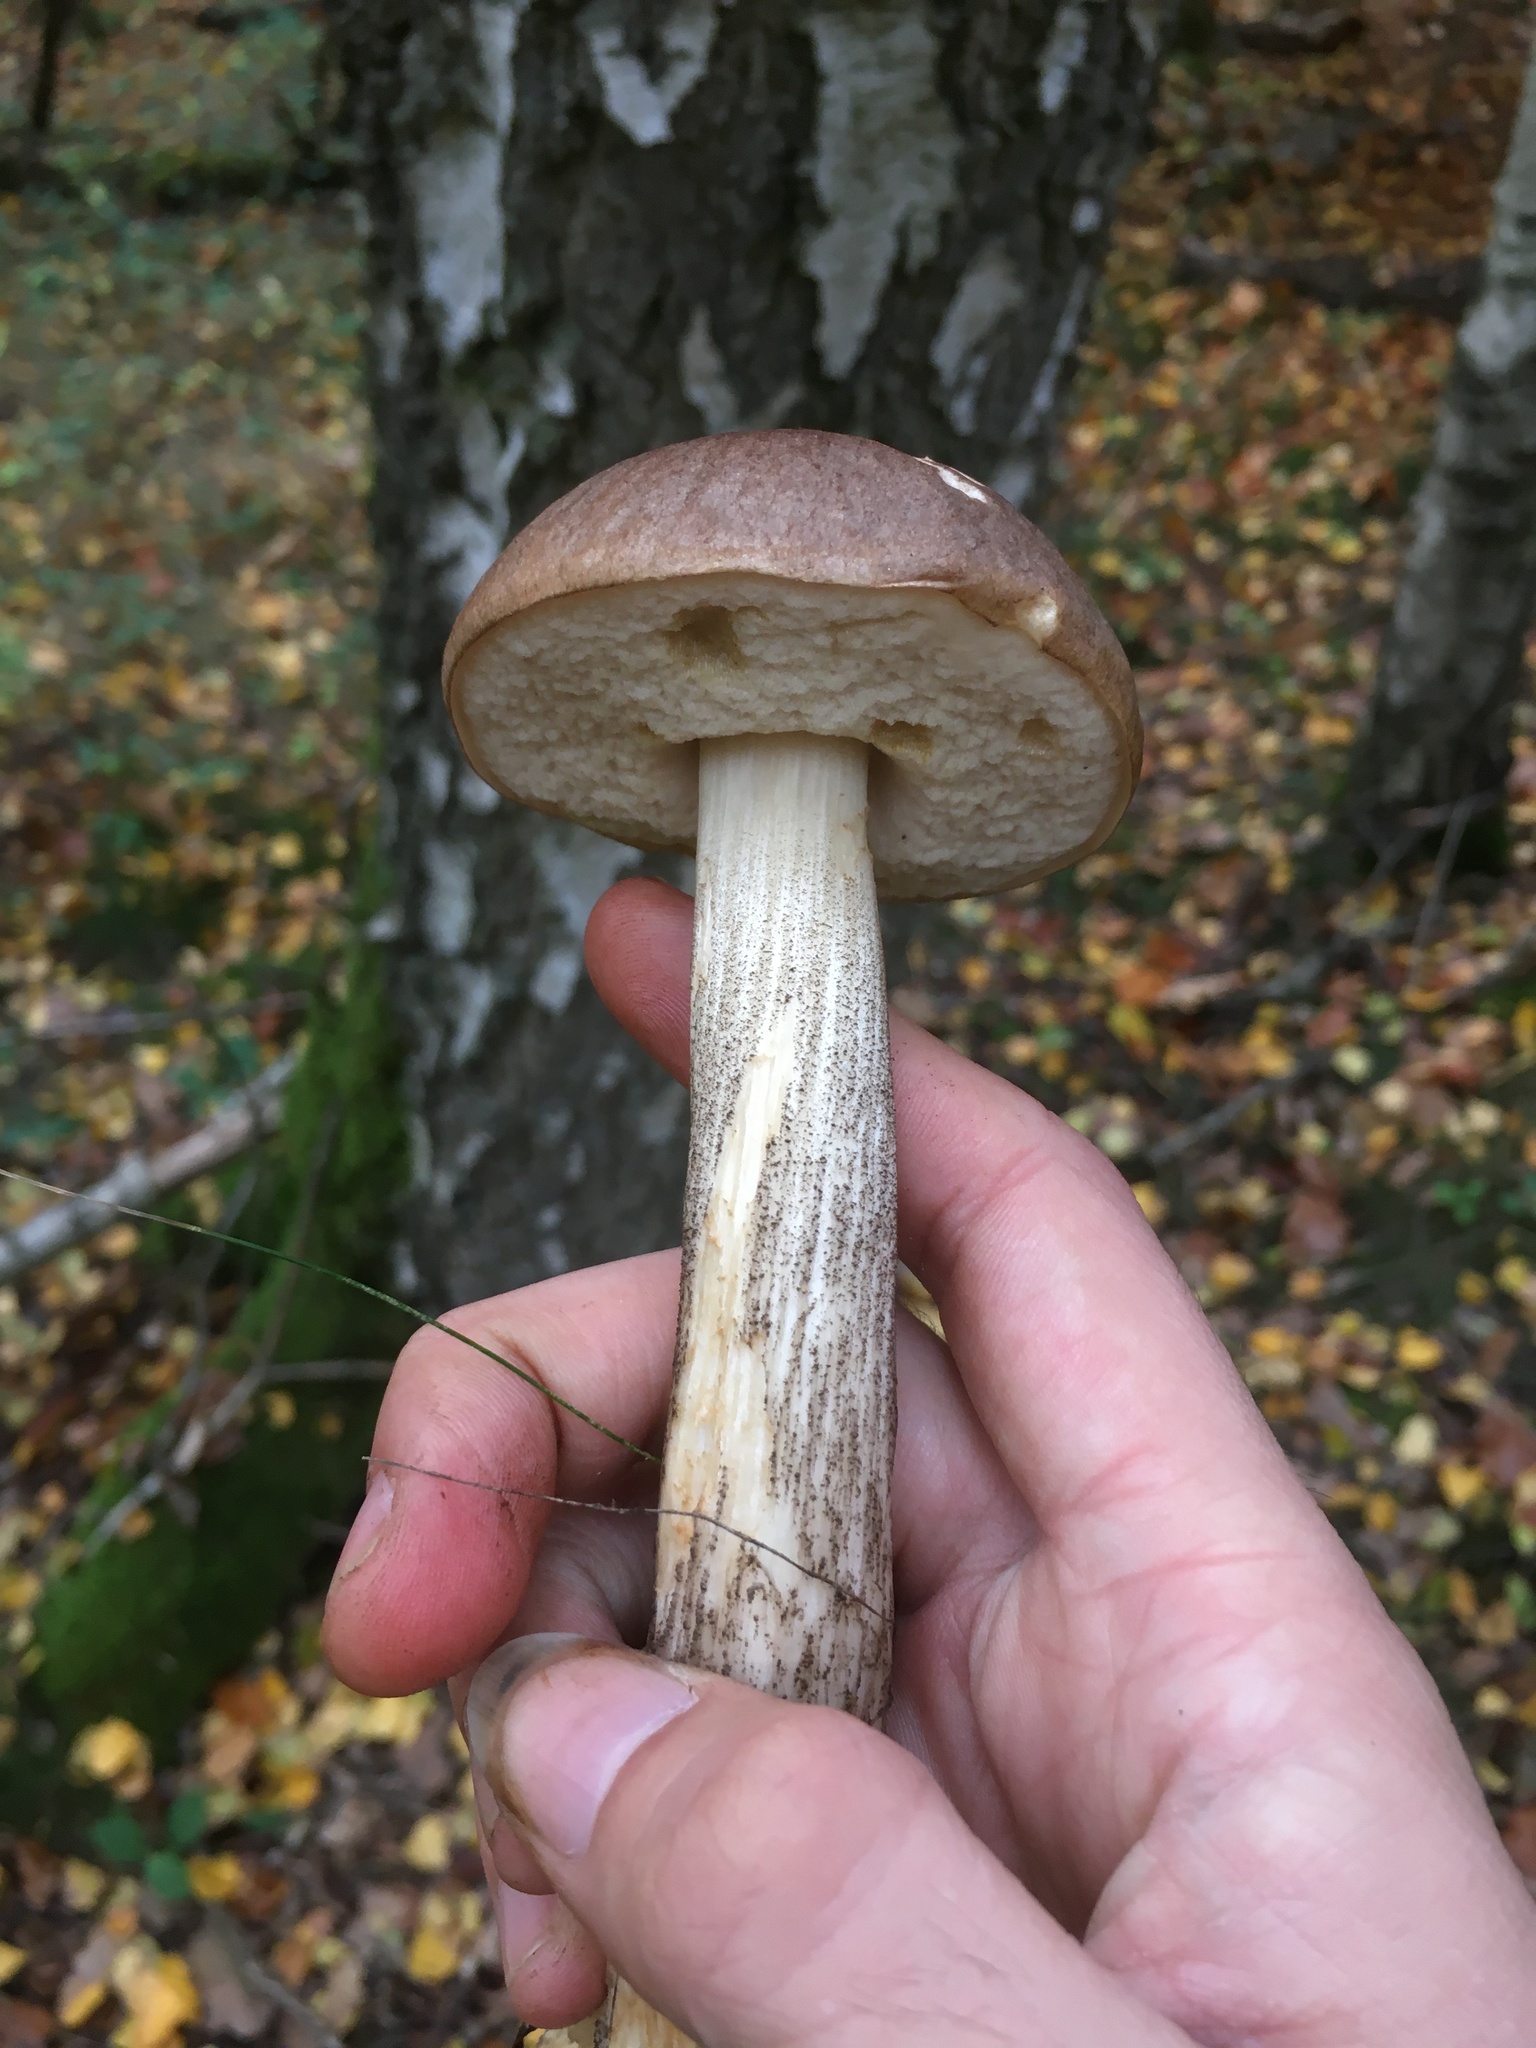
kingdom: Fungi
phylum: Basidiomycota
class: Agaricomycetes
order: Boletales
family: Boletaceae
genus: Leccinum
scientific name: Leccinum scabrum
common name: Blushing bolete
